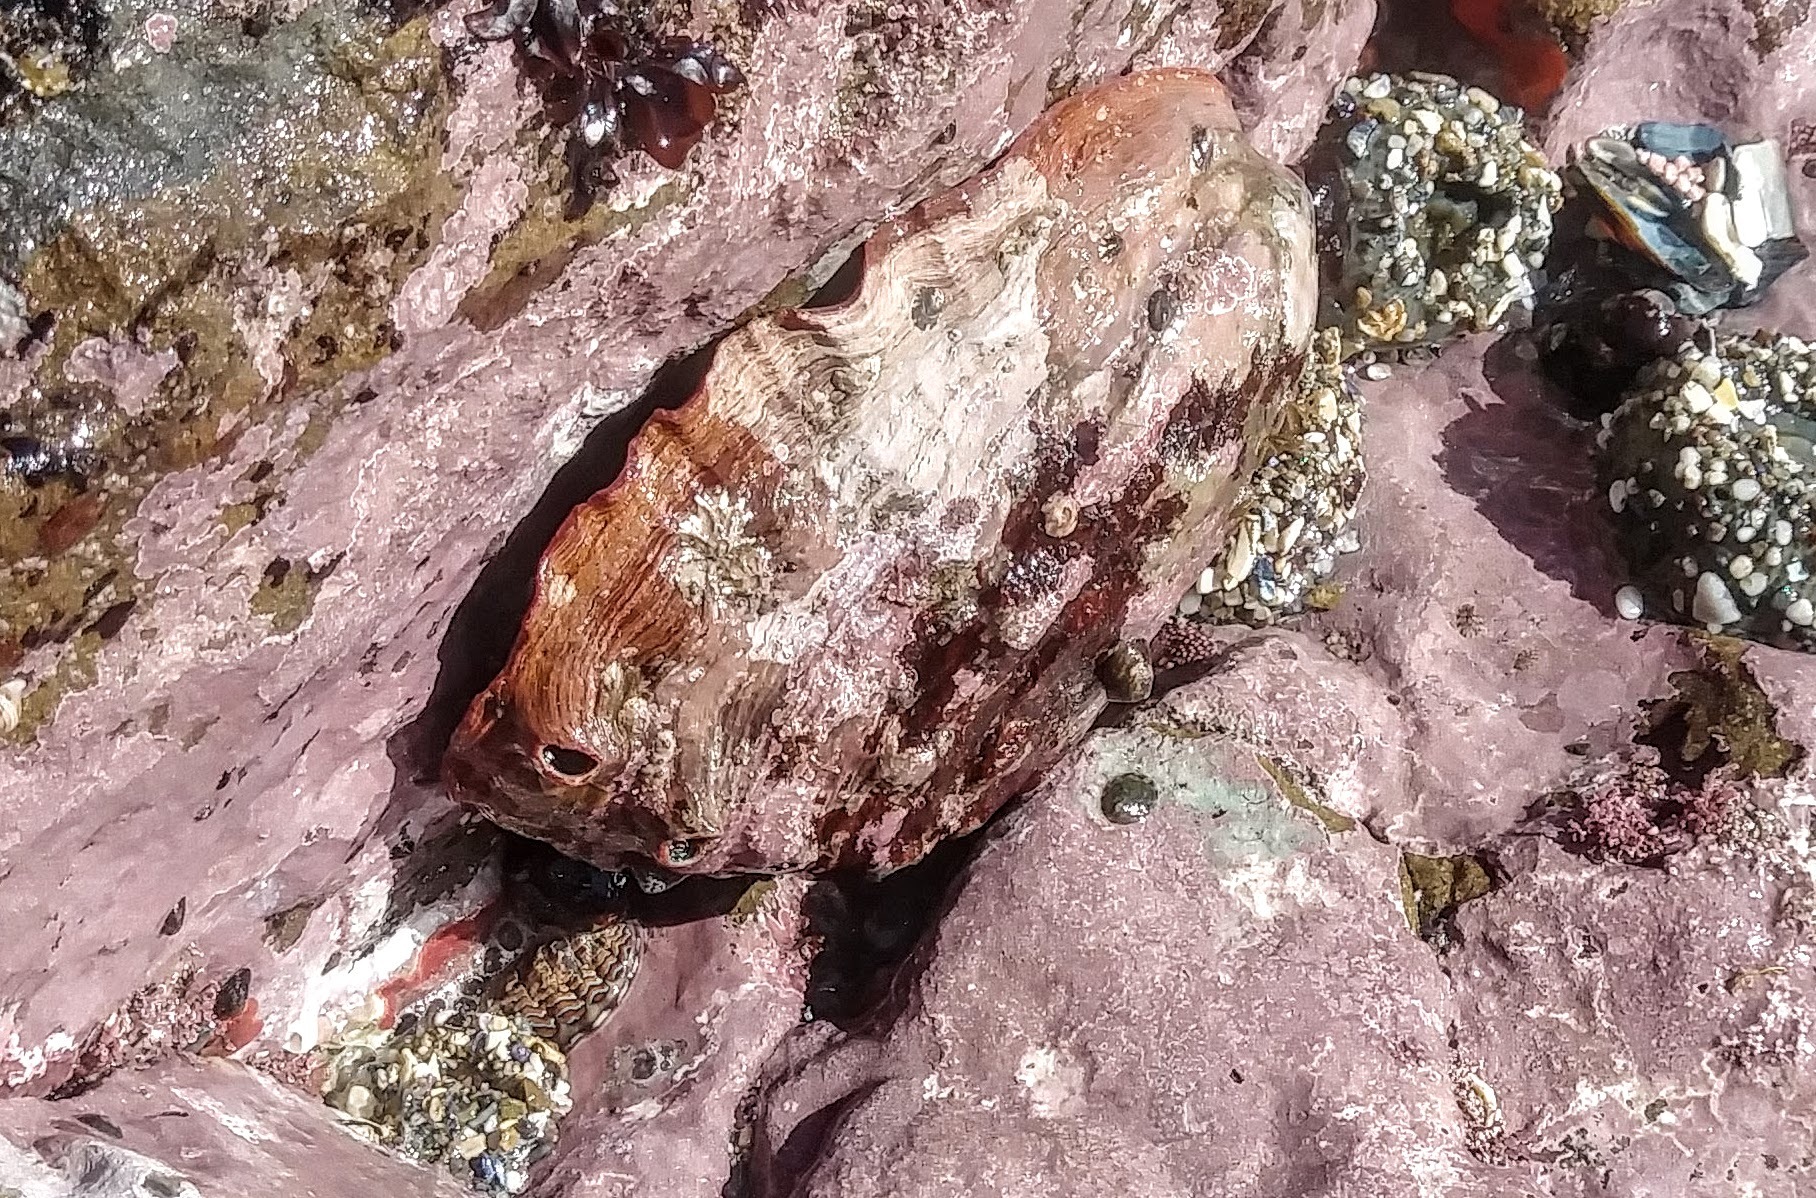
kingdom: Animalia
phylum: Mollusca
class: Gastropoda
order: Lepetellida
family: Haliotidae
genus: Haliotis
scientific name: Haliotis rufescens
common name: Red abalone
